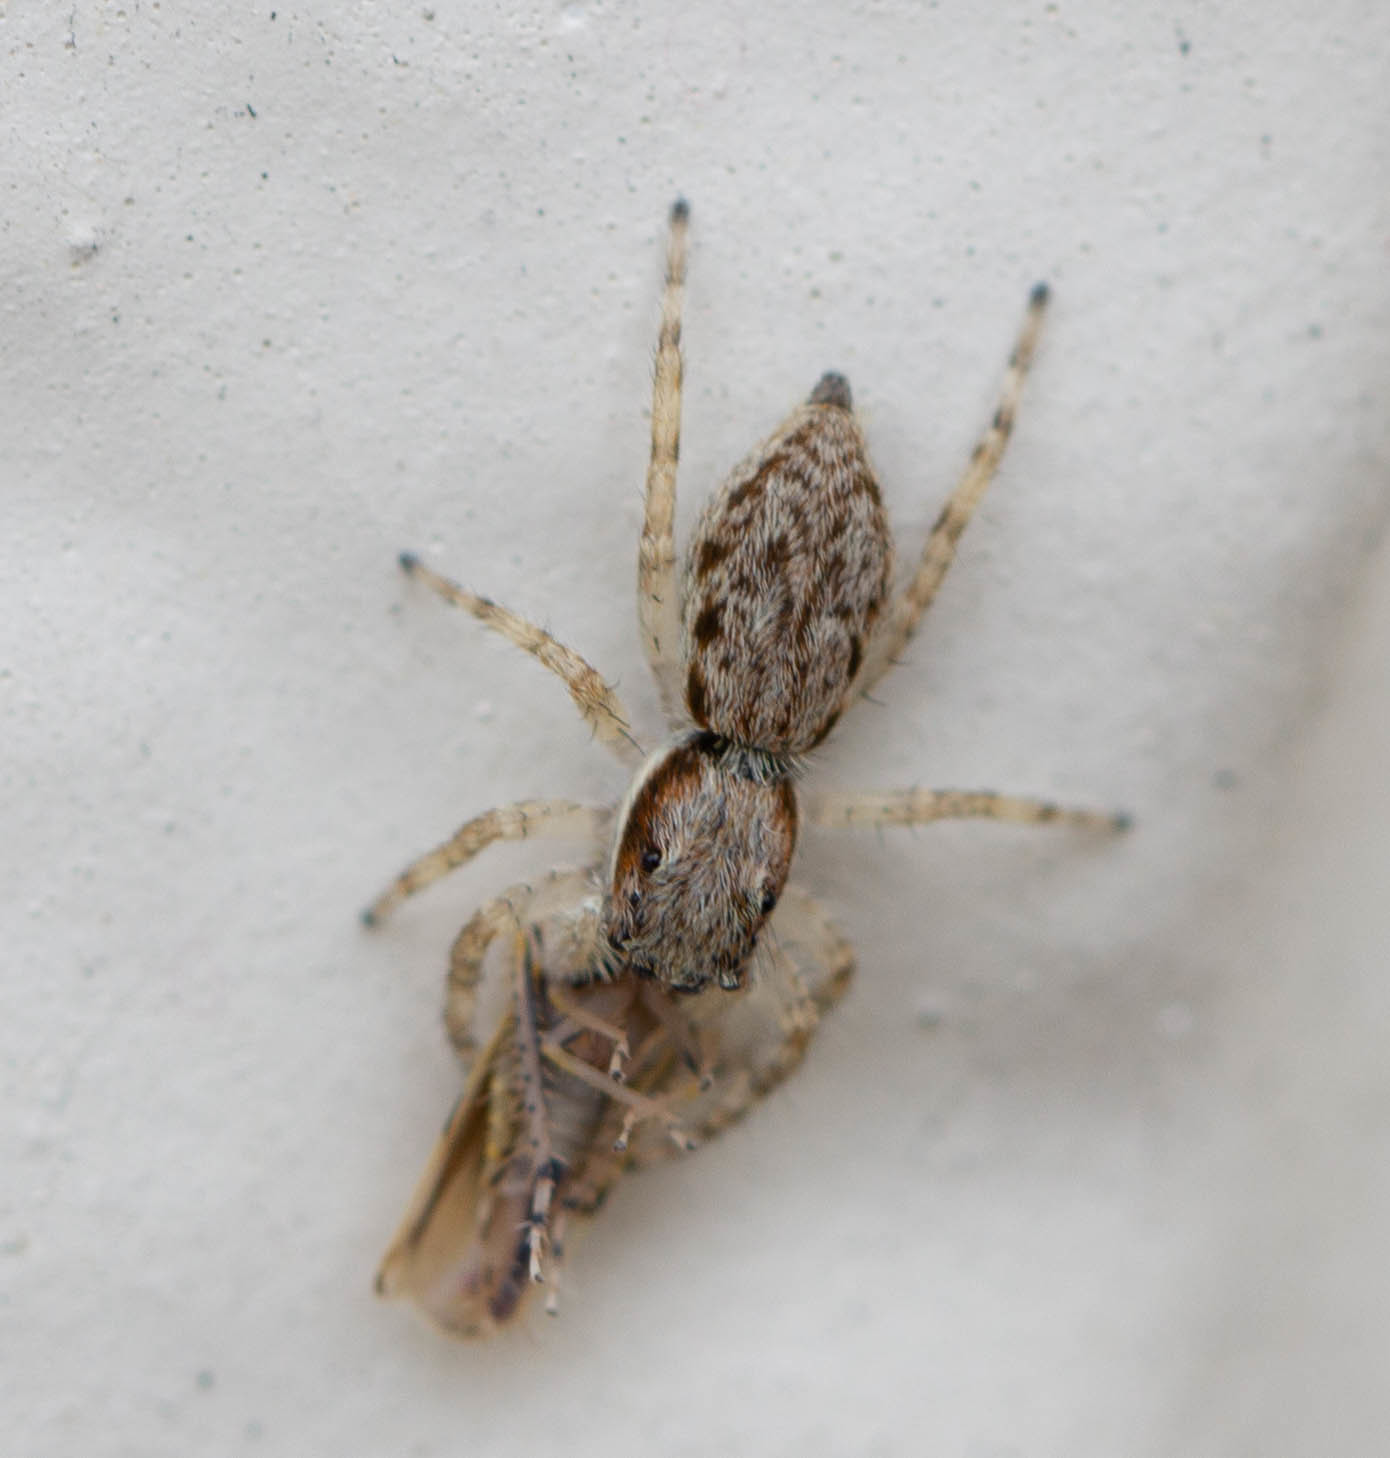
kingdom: Animalia
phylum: Arthropoda
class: Arachnida
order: Araneae
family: Salticidae
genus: Menemerus
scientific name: Menemerus bivittatus
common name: Gray wall jumper
